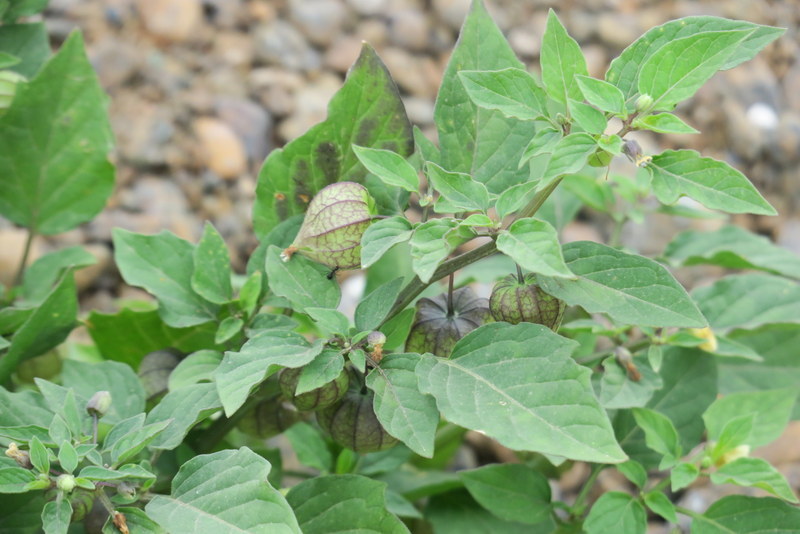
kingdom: Plantae
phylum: Tracheophyta
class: Magnoliopsida
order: Solanales
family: Solanaceae
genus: Physalis
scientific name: Physalis angulata
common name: Angular winter-cherry
